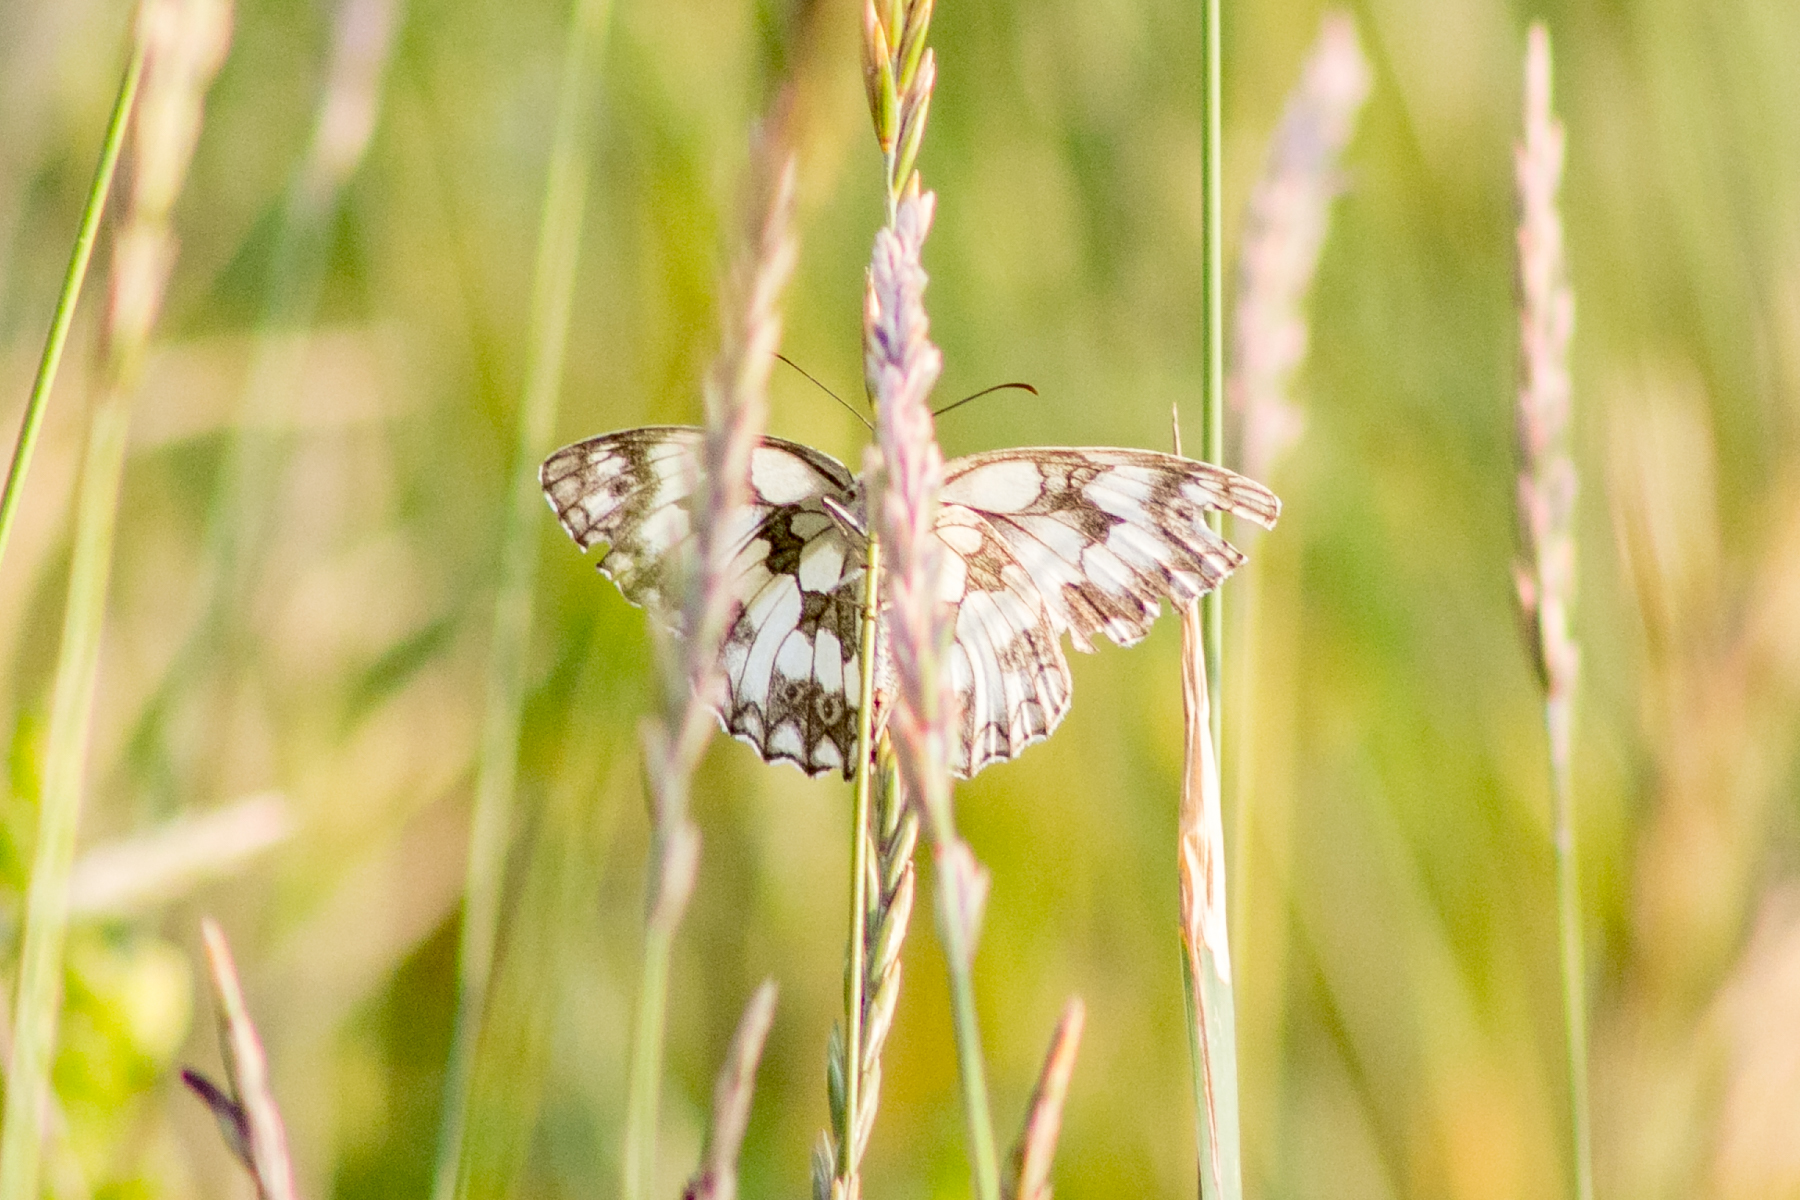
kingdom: Animalia
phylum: Arthropoda
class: Insecta
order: Lepidoptera
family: Nymphalidae
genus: Melanargia
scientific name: Melanargia galathea
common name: Marbled white
